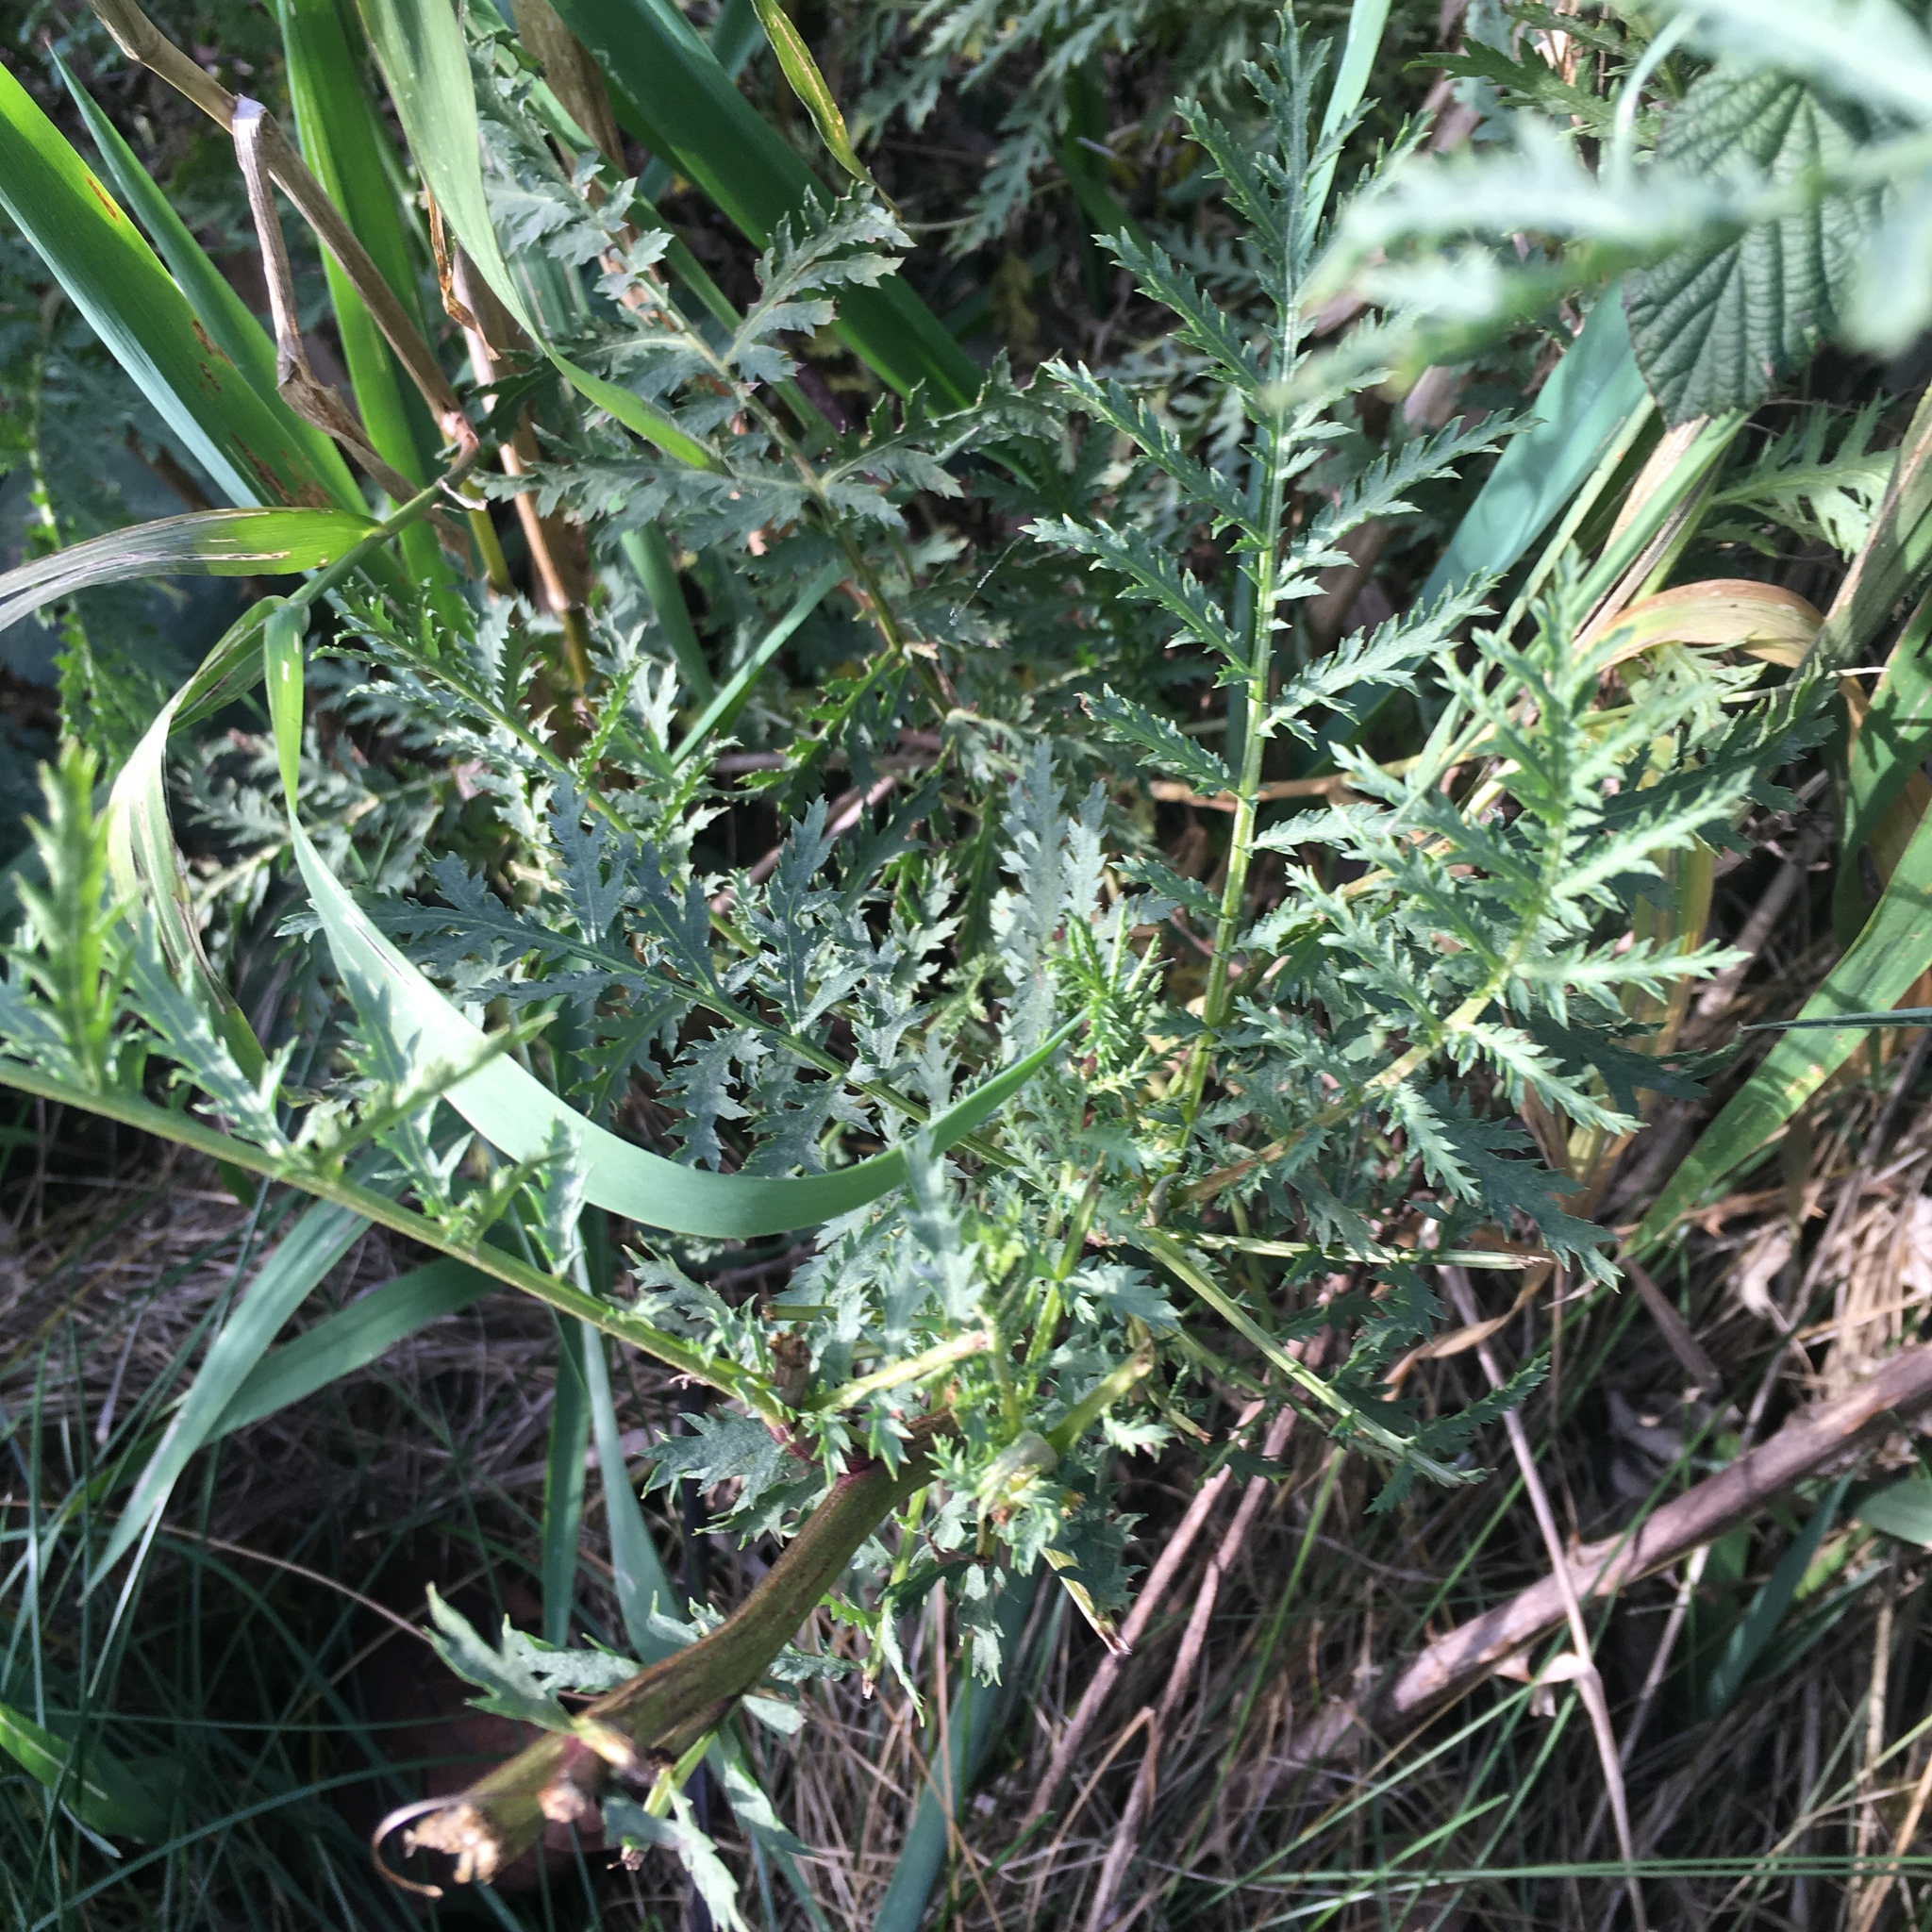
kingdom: Plantae
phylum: Tracheophyta
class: Magnoliopsida
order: Asterales
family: Asteraceae
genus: Tanacetum
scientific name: Tanacetum vulgare
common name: Common tansy
